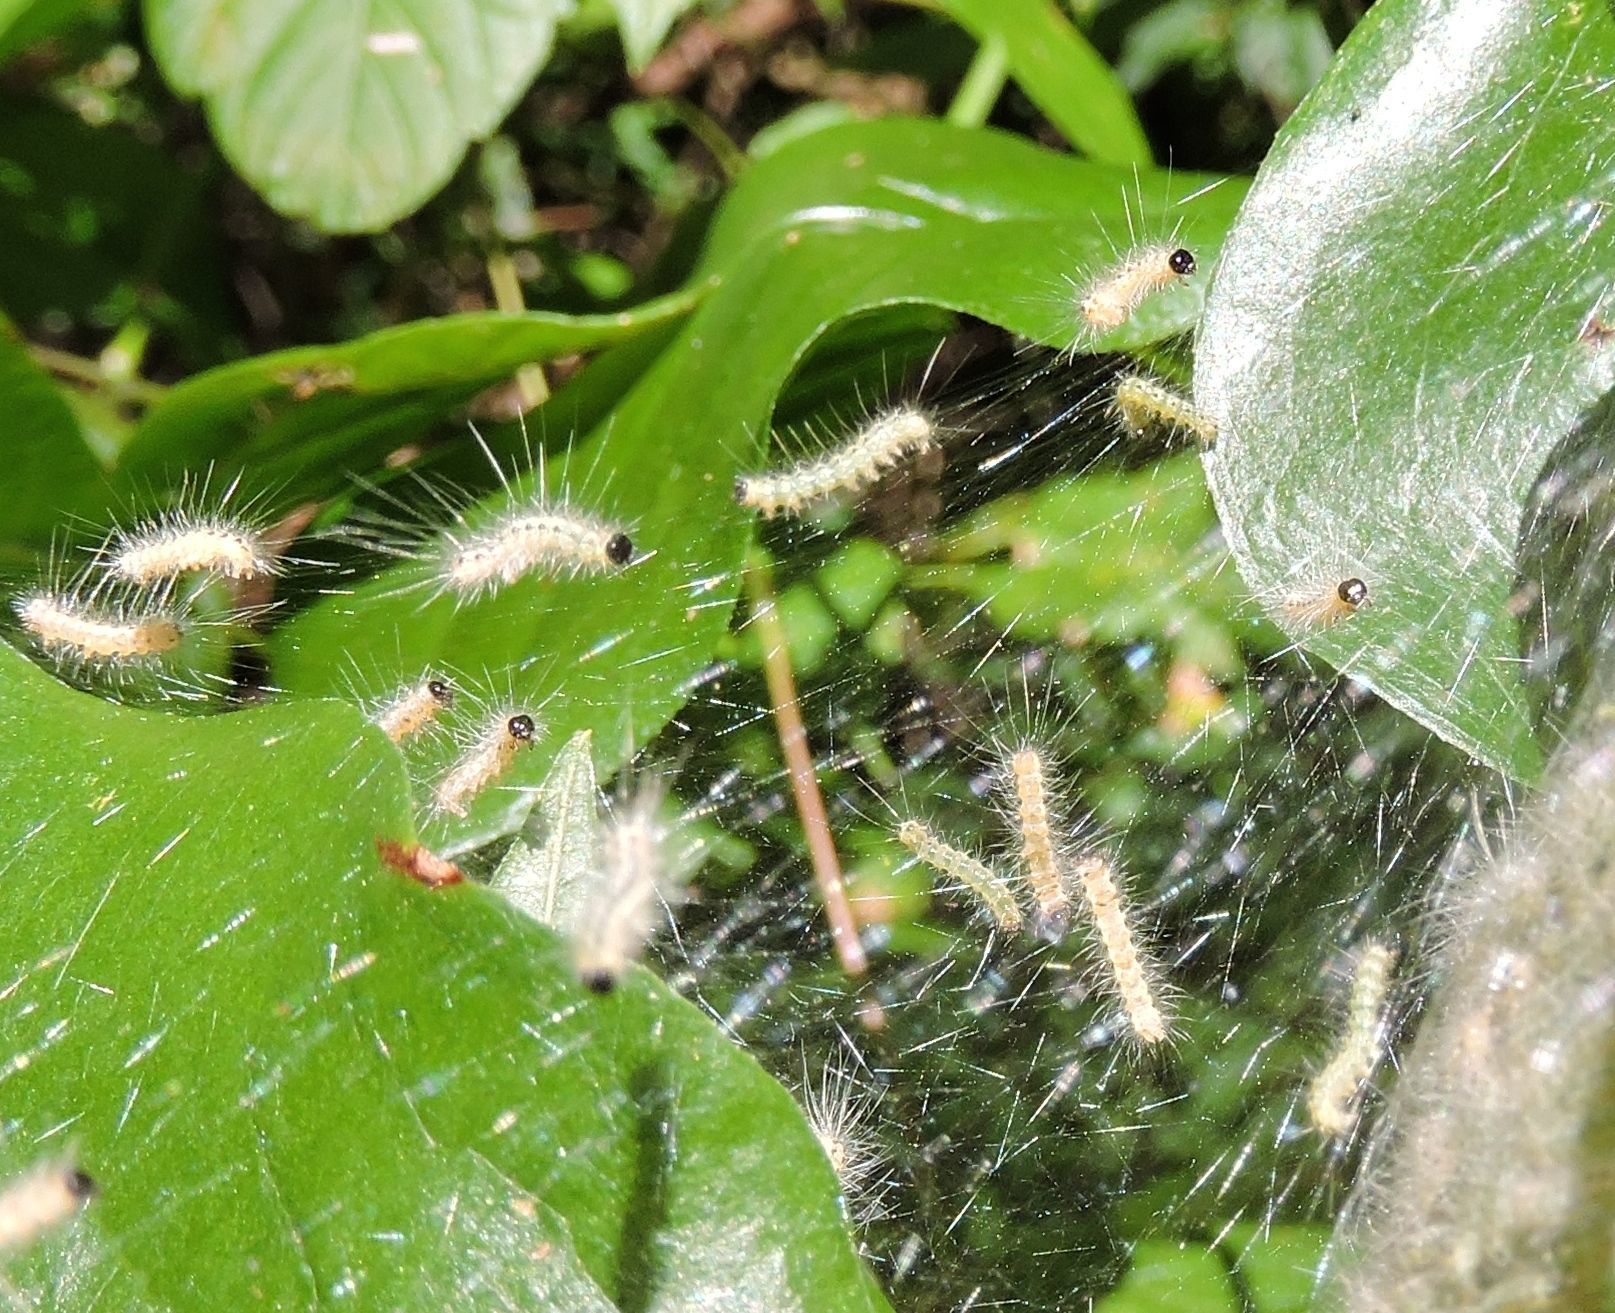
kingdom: Animalia
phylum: Arthropoda
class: Insecta
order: Lepidoptera
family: Erebidae
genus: Hyphantria
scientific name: Hyphantria cunea
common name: American white moth
